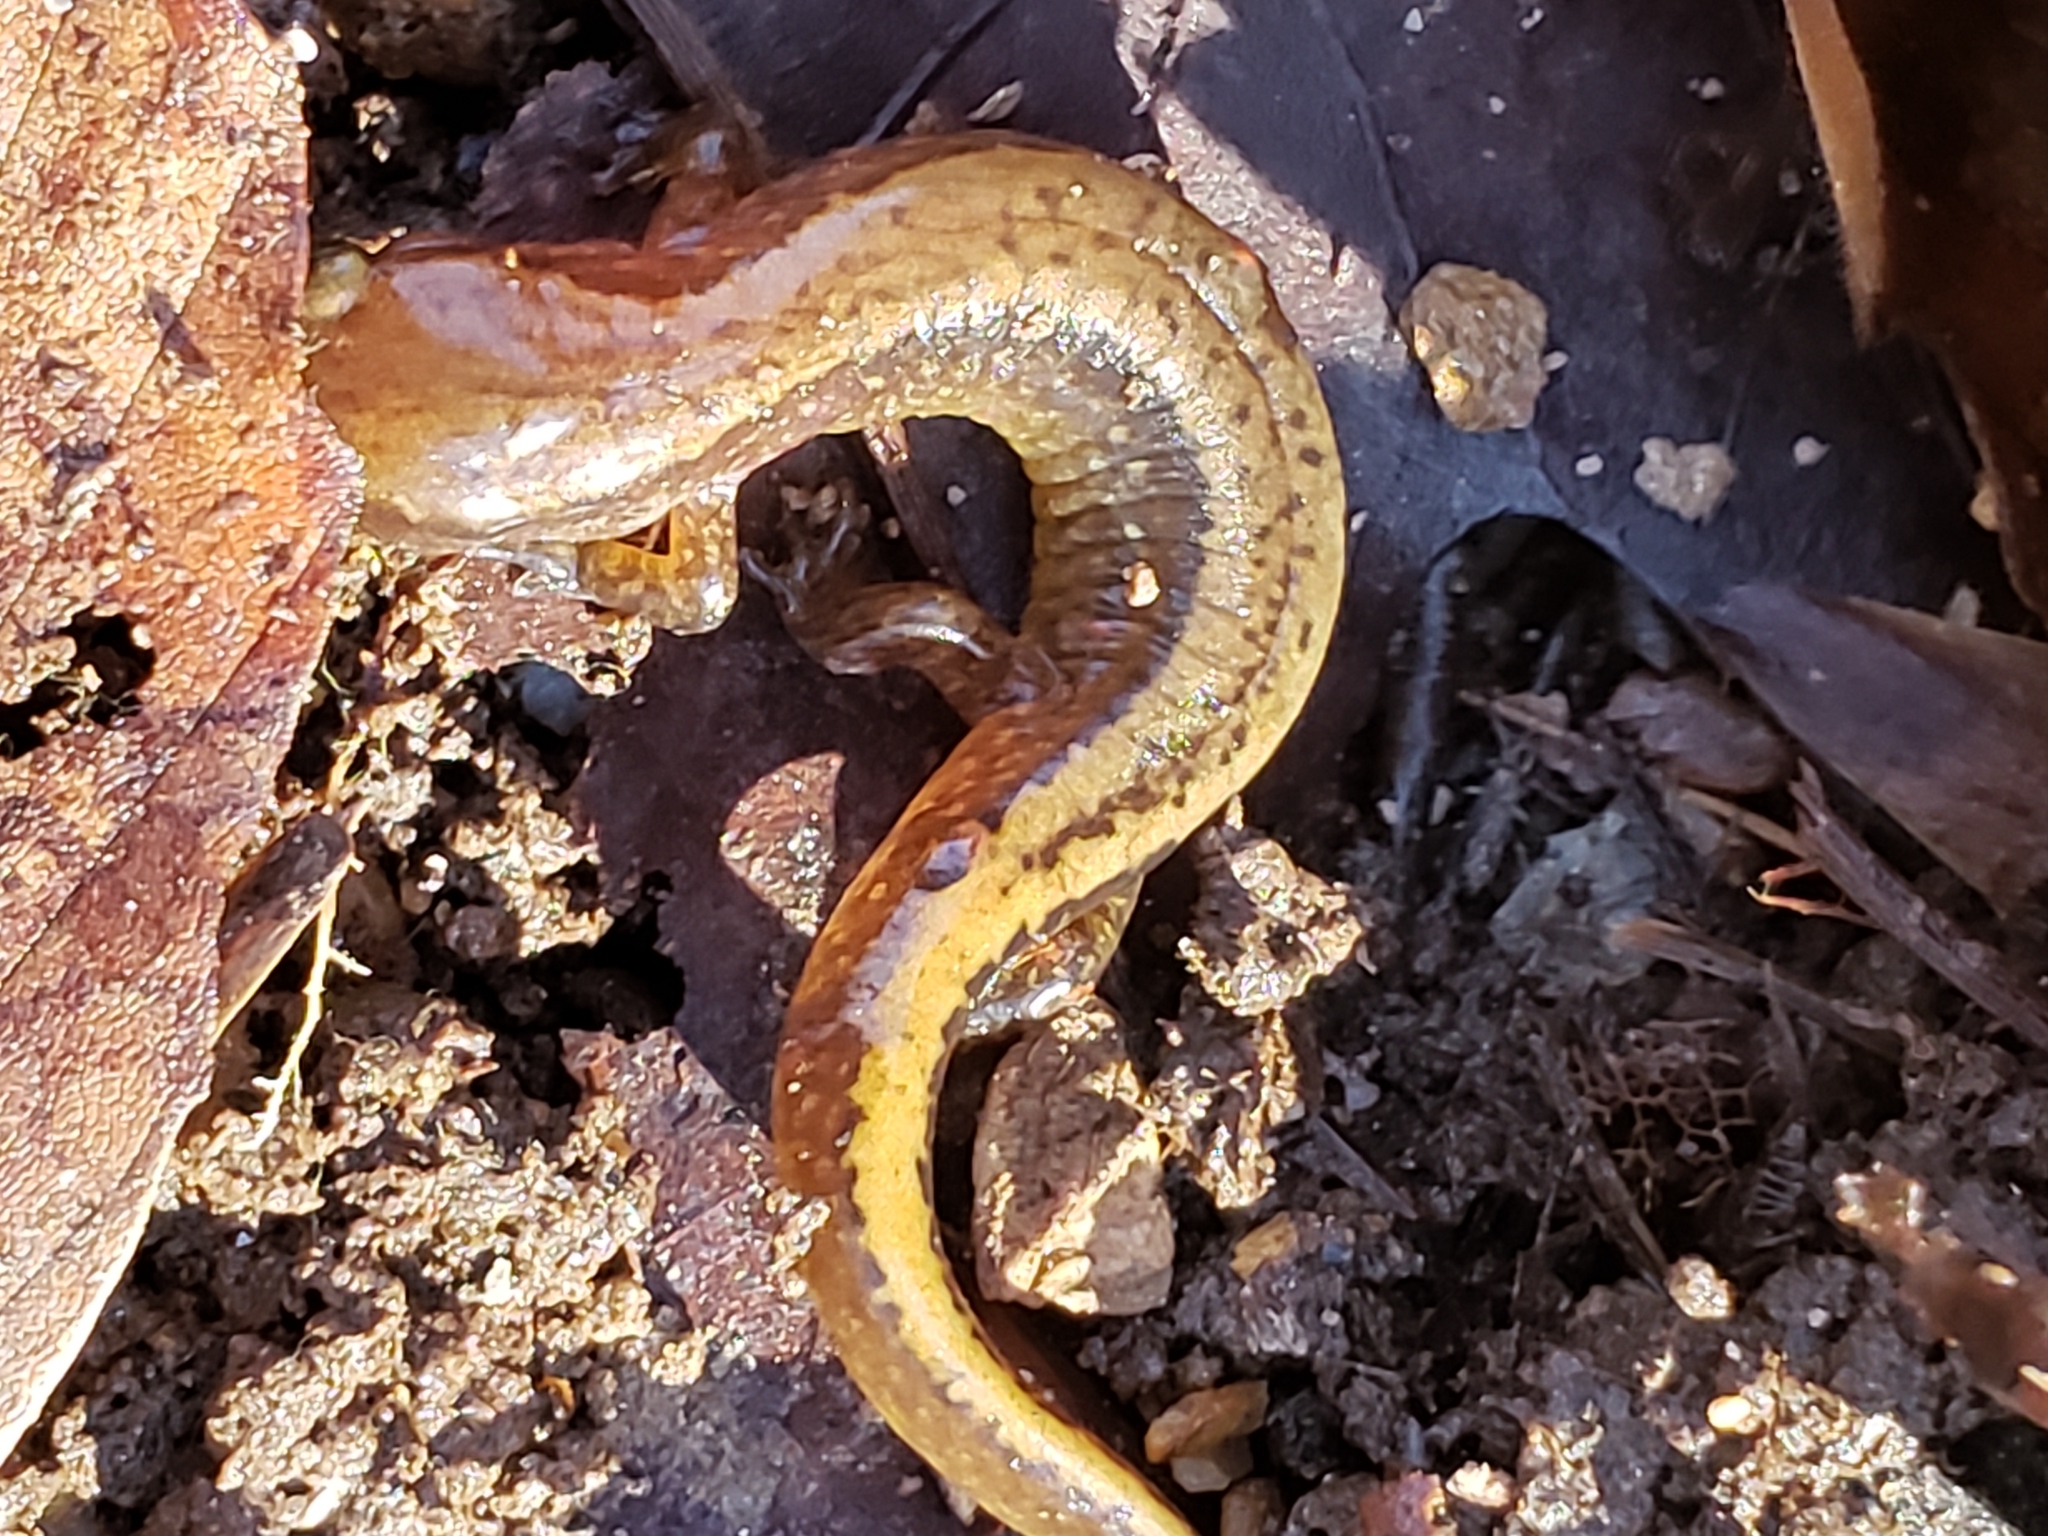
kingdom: Animalia
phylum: Chordata
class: Amphibia
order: Caudata
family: Plethodontidae
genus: Eurycea
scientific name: Eurycea bislineata
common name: Northern two-lined salamander
